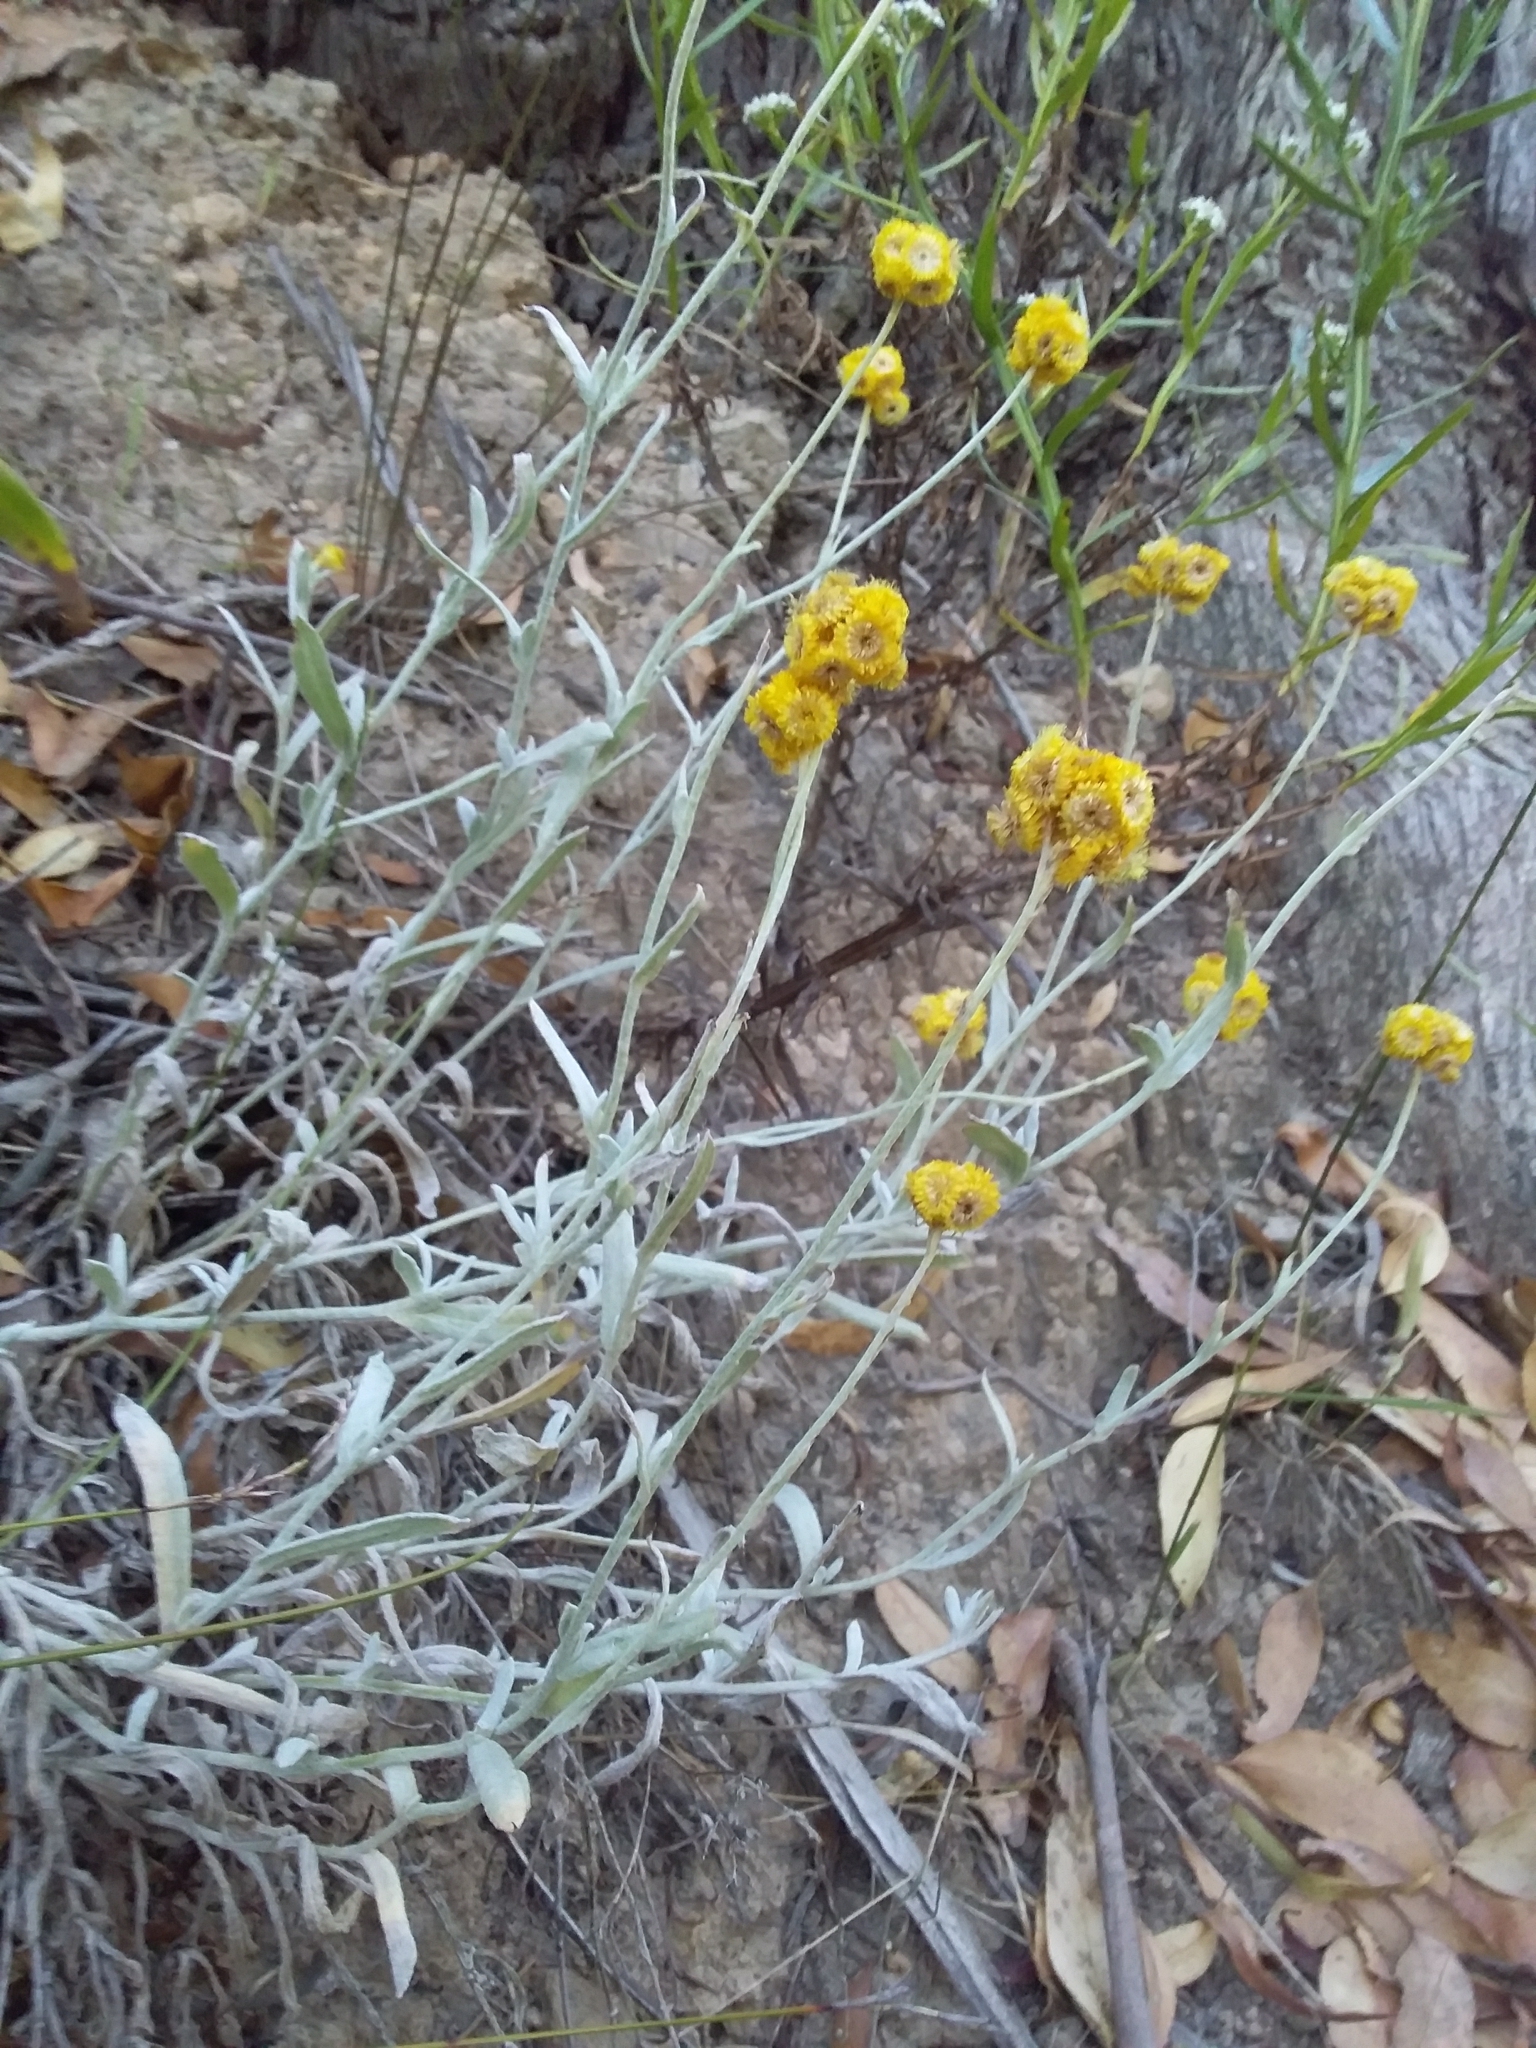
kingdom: Plantae
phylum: Tracheophyta
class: Magnoliopsida
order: Asterales
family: Asteraceae
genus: Chrysocephalum
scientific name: Chrysocephalum apiculatum
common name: Common everlasting
